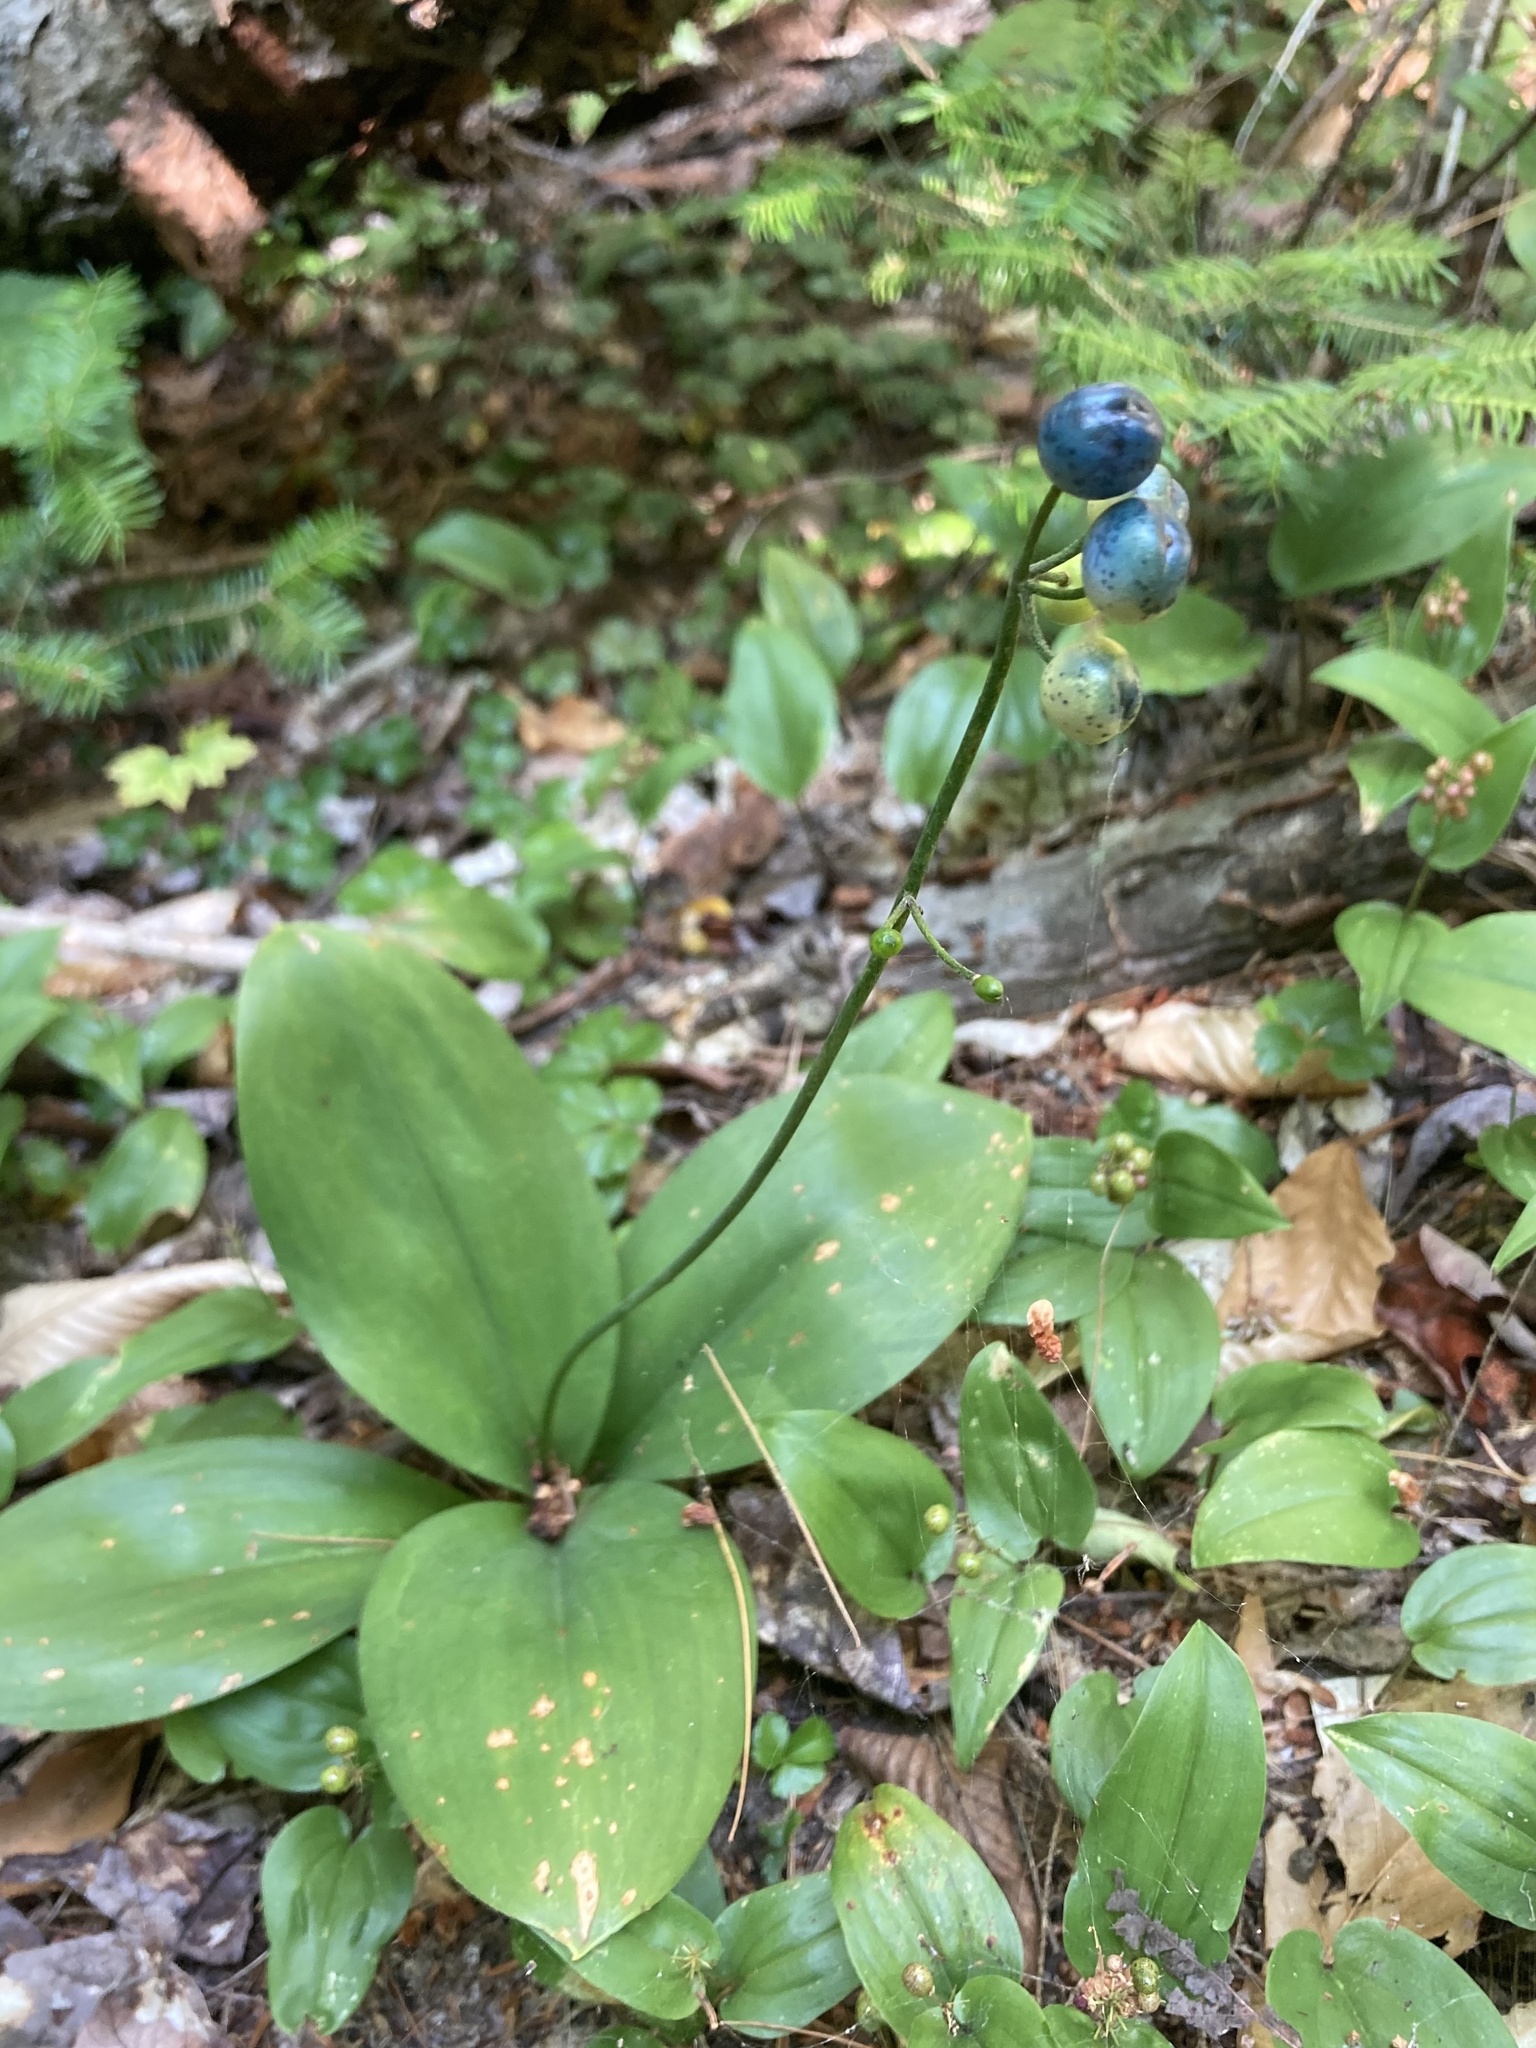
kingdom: Plantae
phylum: Tracheophyta
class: Liliopsida
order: Liliales
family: Liliaceae
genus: Clintonia
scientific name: Clintonia borealis
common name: Yellow clintonia
